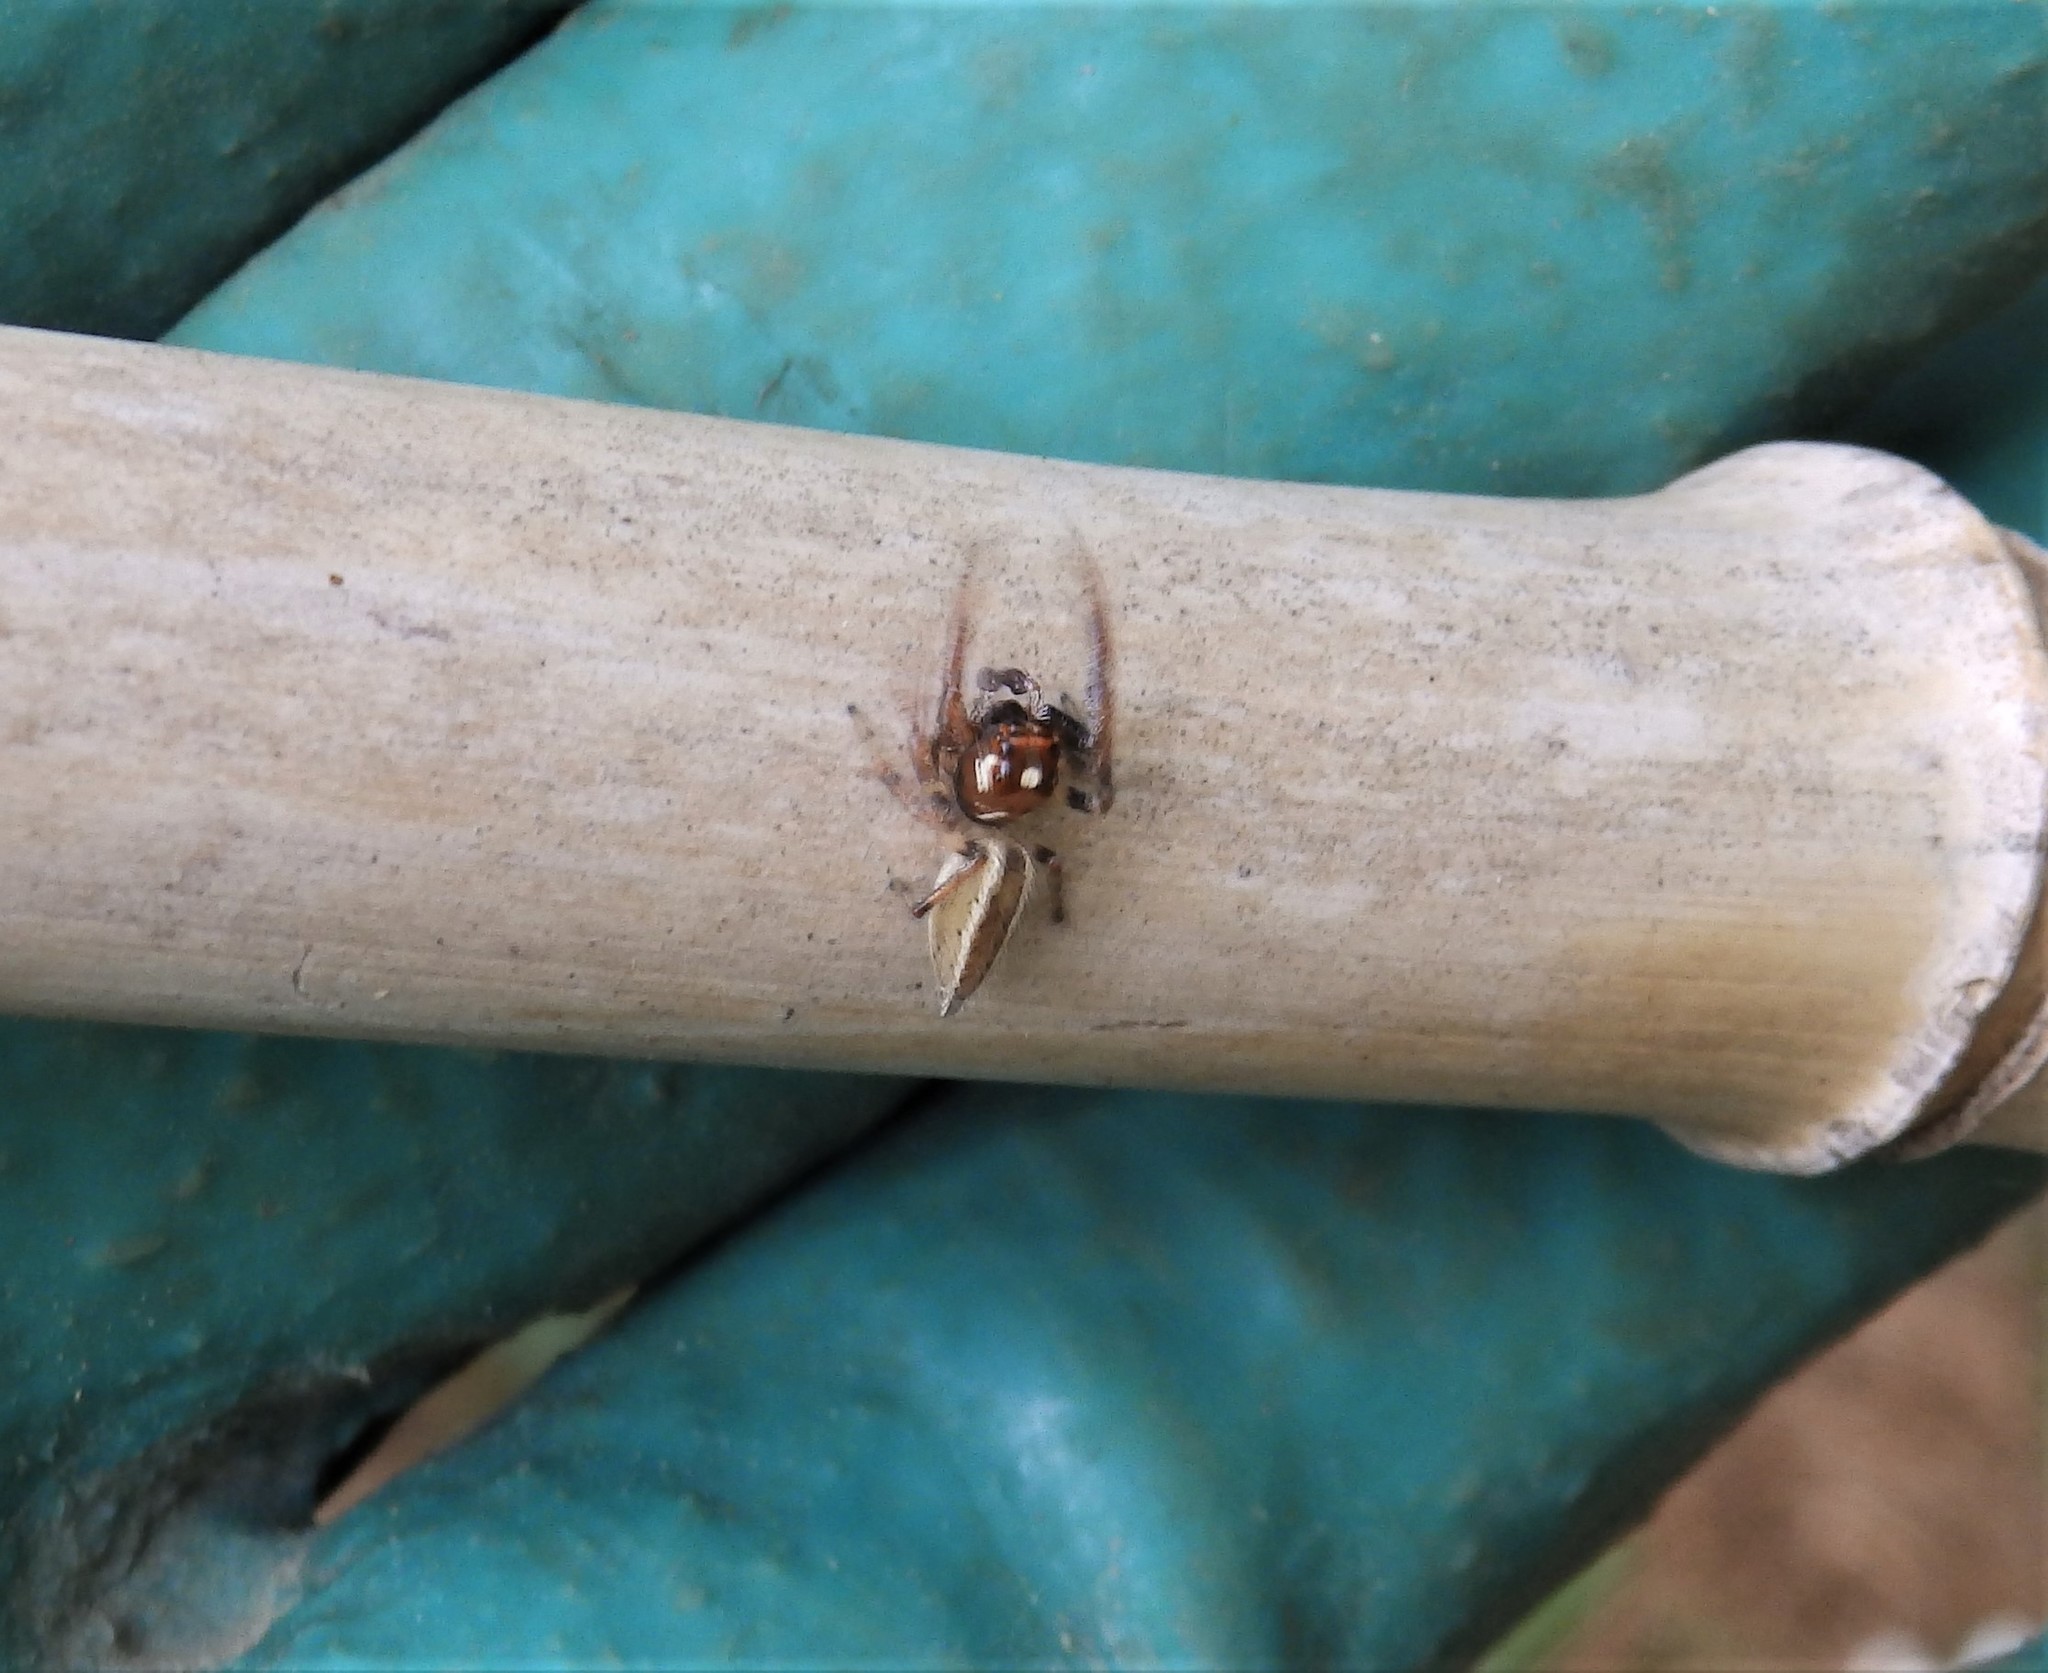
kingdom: Animalia
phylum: Arthropoda
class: Arachnida
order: Araneae
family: Salticidae
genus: Colonus
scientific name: Colonus sylvanus
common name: Jumping spiders
